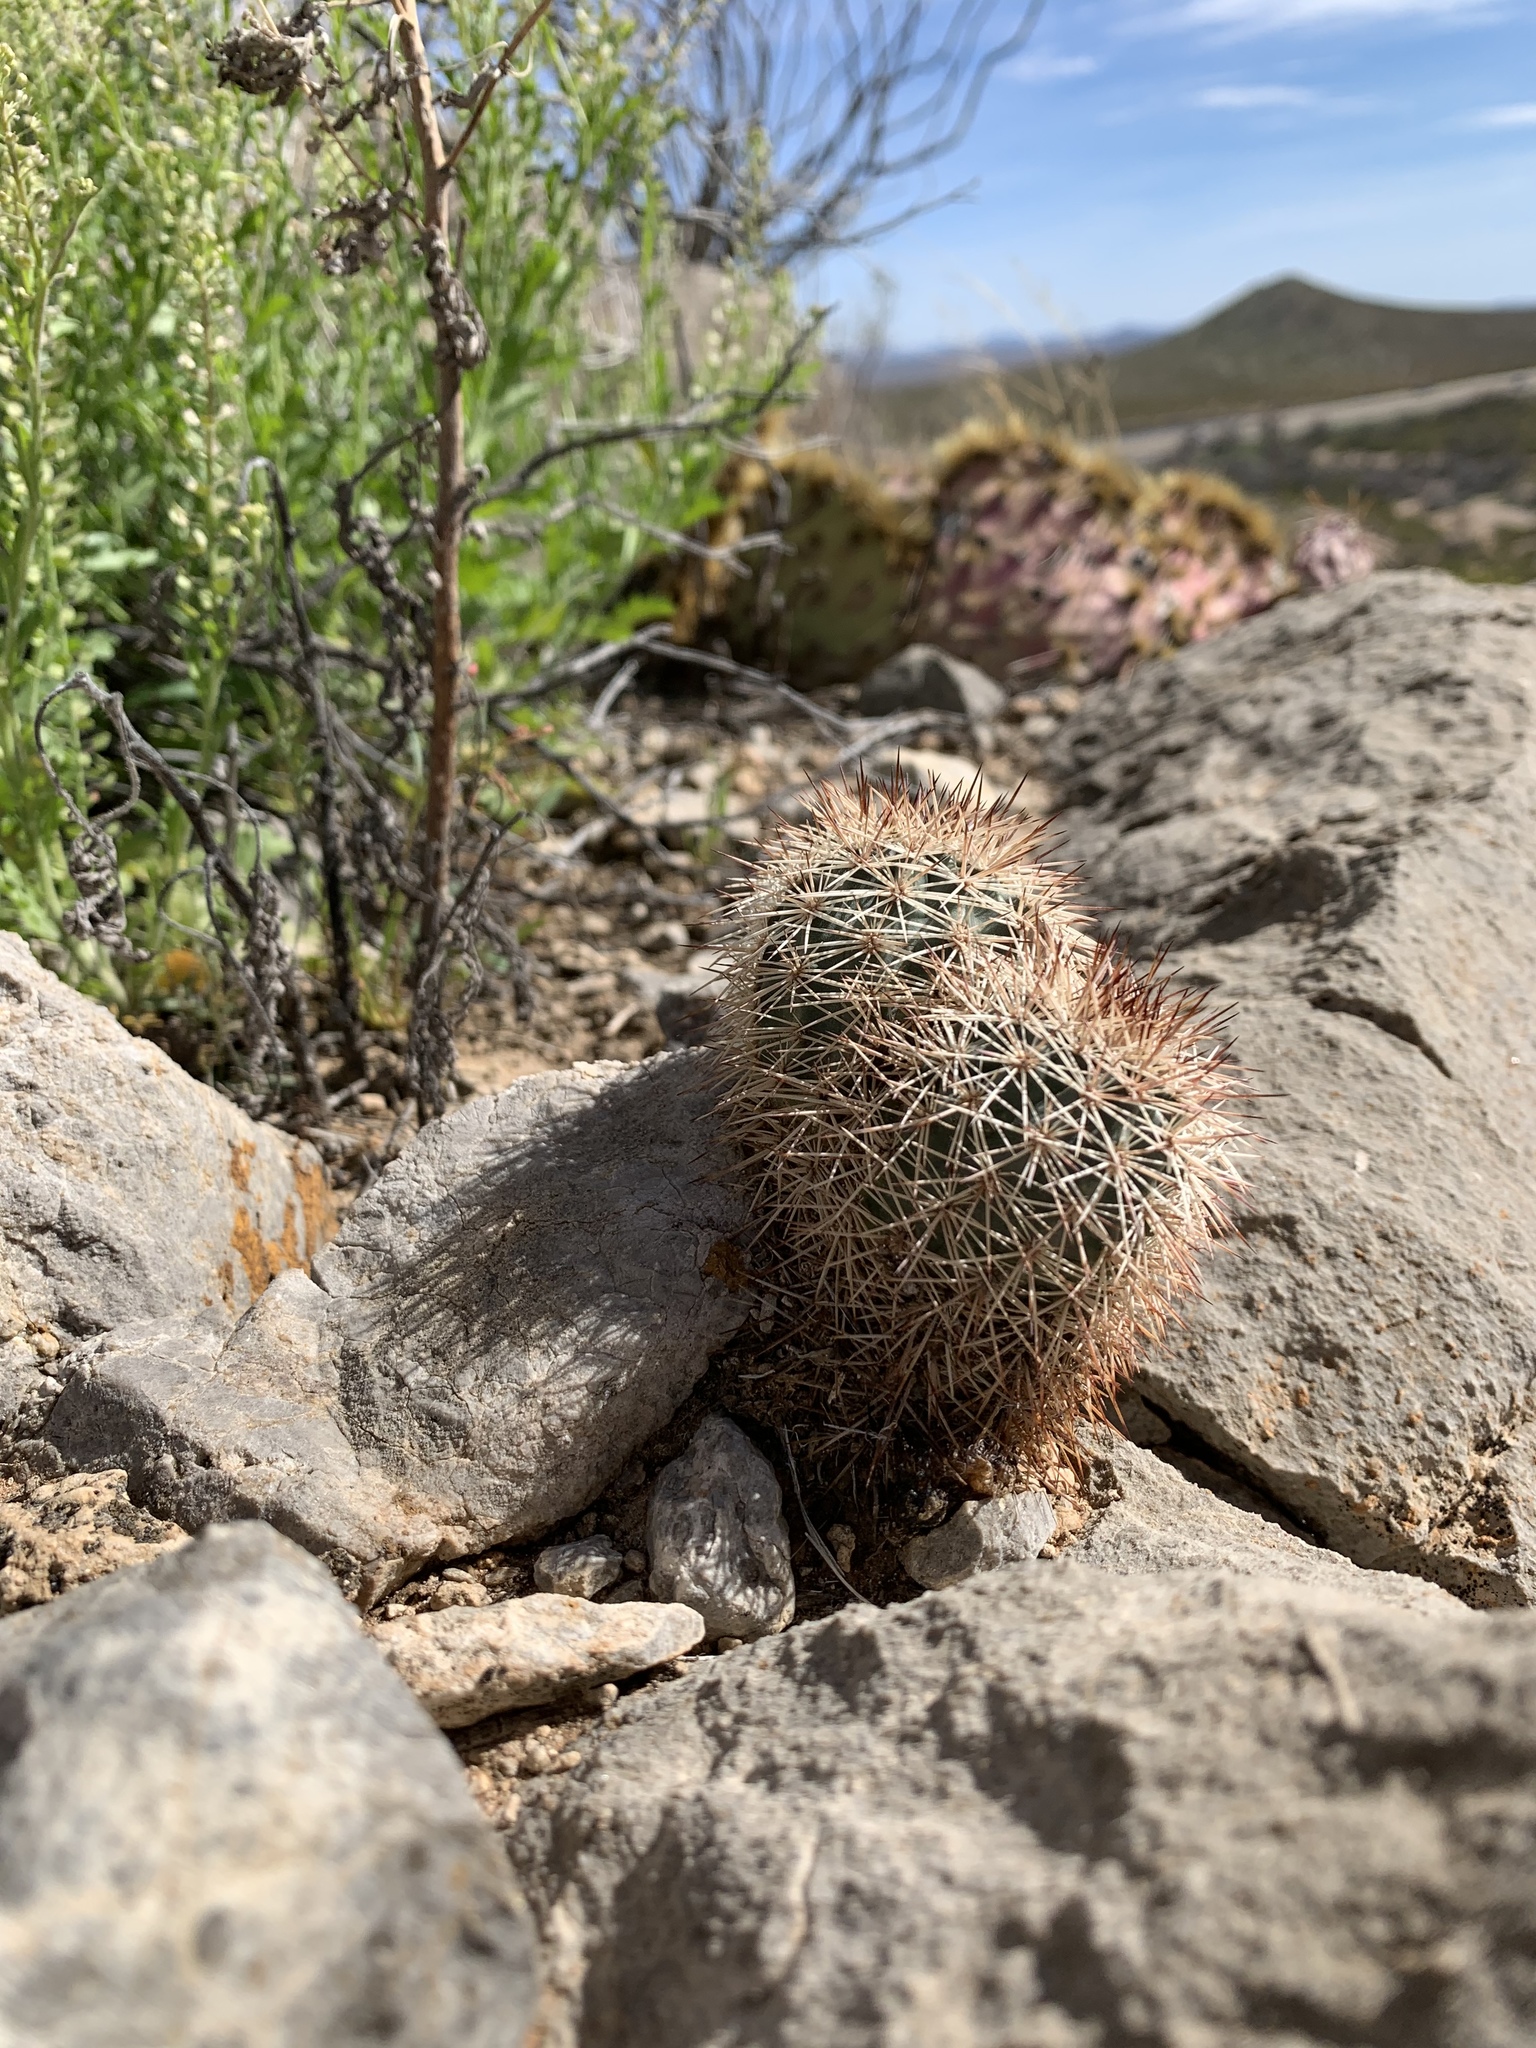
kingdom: Plantae
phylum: Tracheophyta
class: Magnoliopsida
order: Caryophyllales
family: Cactaceae
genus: Echinocereus
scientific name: Echinocereus dasyacanthus
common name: Spiny hedgehog cactus
